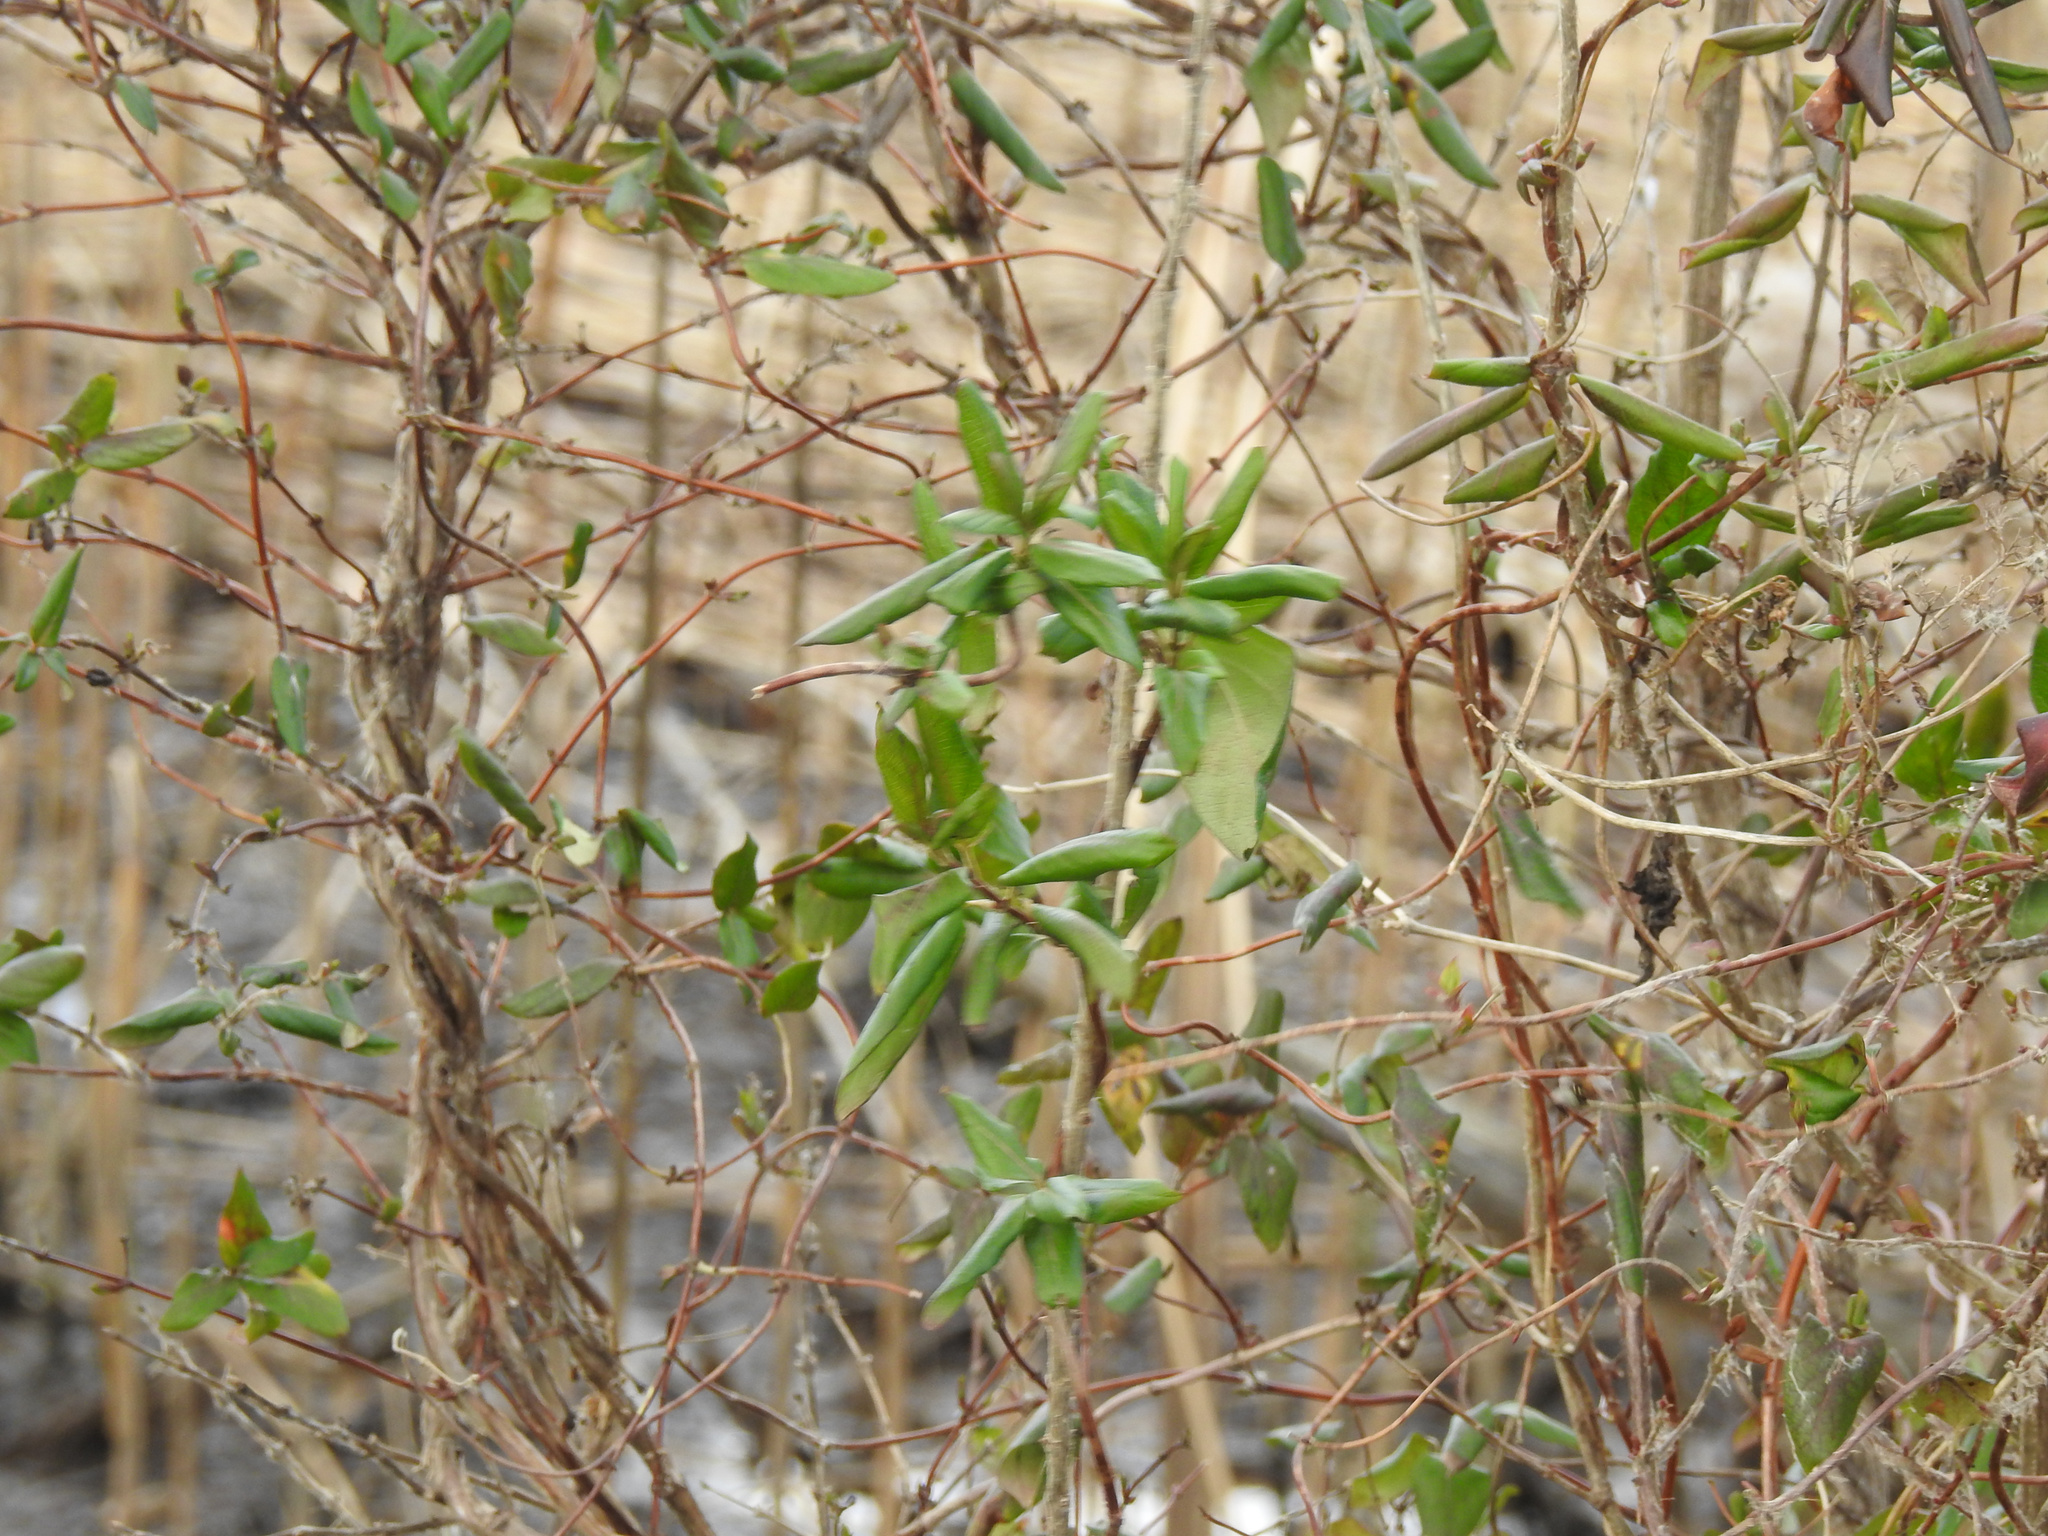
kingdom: Plantae
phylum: Tracheophyta
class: Magnoliopsida
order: Dipsacales
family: Caprifoliaceae
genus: Lonicera
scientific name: Lonicera japonica
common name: Japanese honeysuckle
